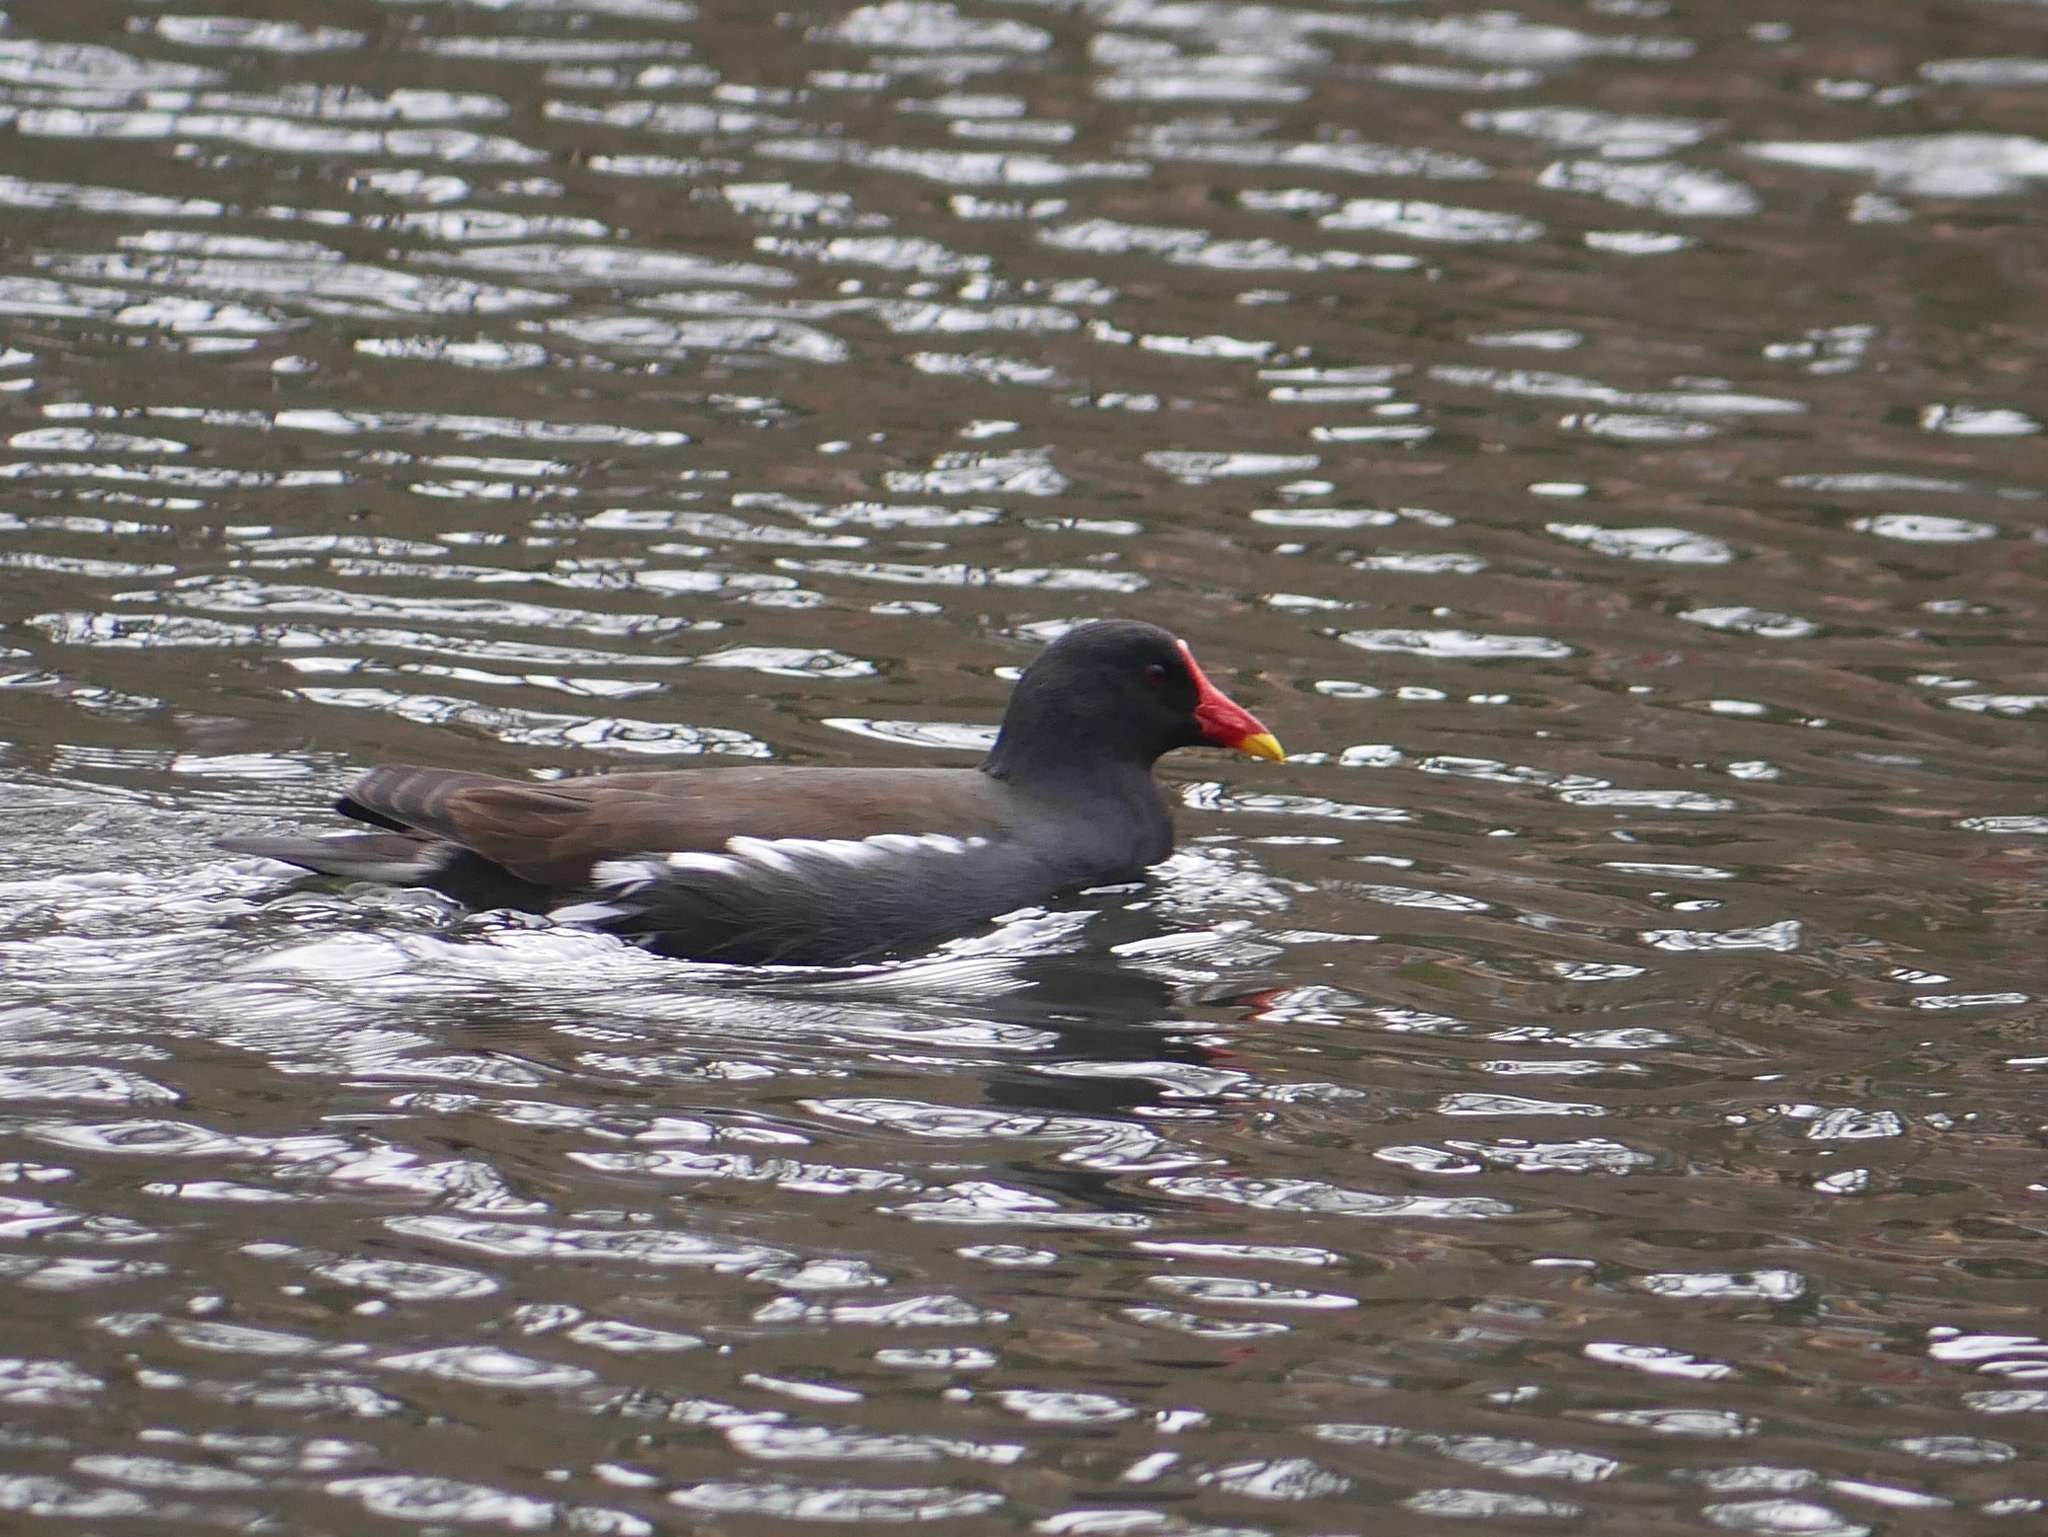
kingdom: Animalia
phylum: Chordata
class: Aves
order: Gruiformes
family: Rallidae
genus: Gallinula
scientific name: Gallinula chloropus
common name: Common moorhen
